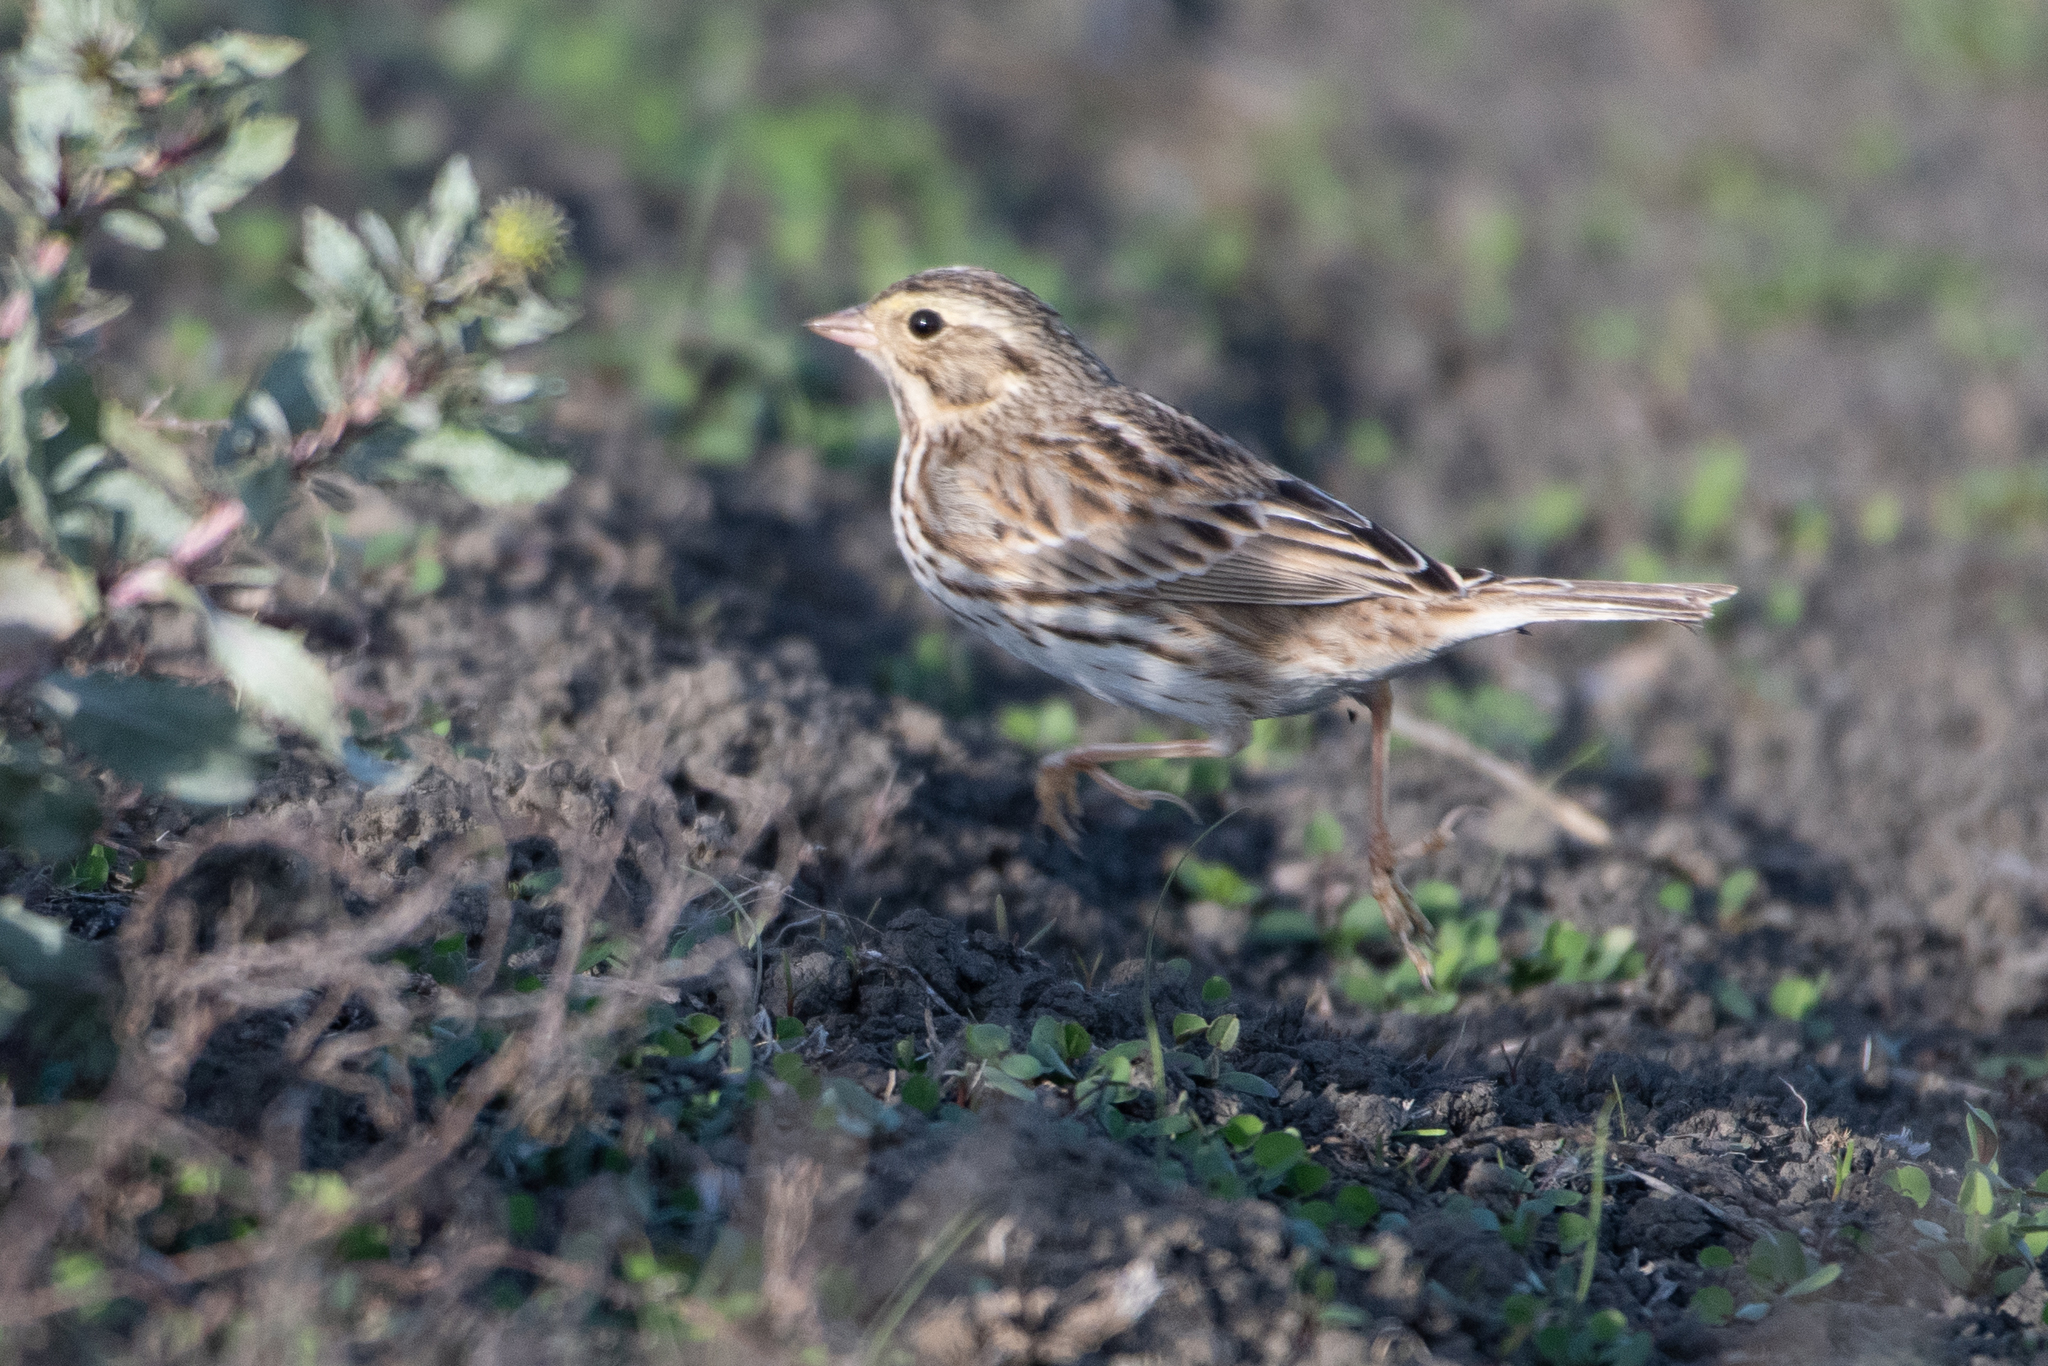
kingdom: Animalia
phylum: Chordata
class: Aves
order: Passeriformes
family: Passerellidae
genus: Passerculus
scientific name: Passerculus sandwichensis
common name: Savannah sparrow
